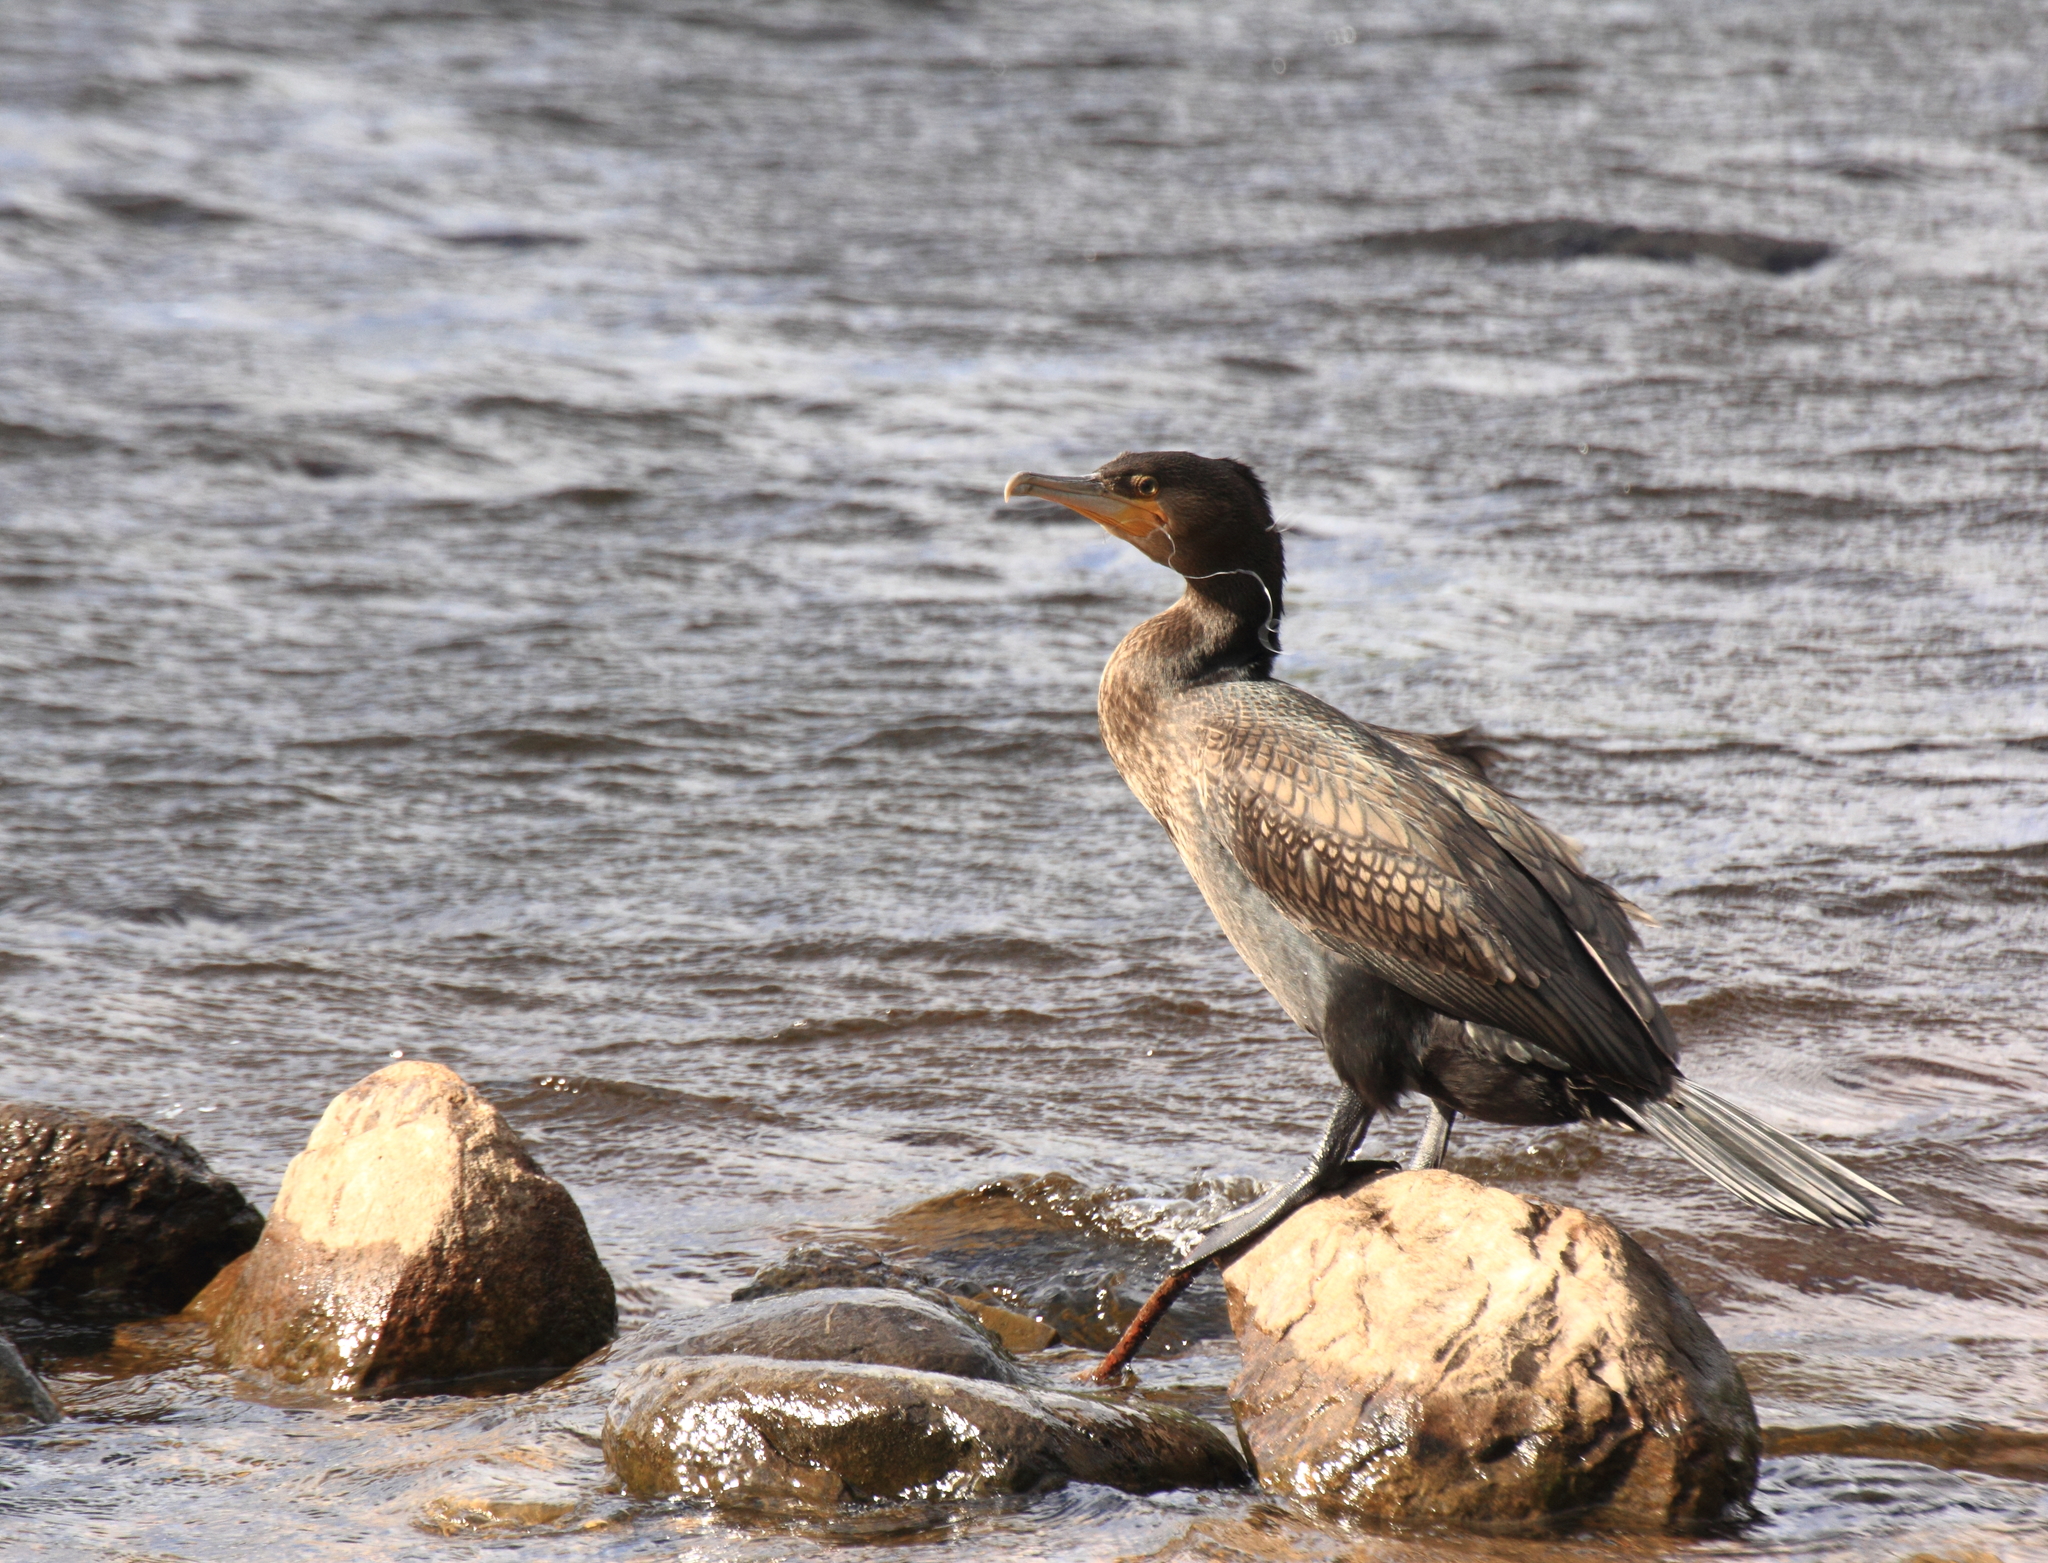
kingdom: Animalia
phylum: Chordata
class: Aves
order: Suliformes
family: Phalacrocoracidae
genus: Phalacrocorax
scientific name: Phalacrocorax carbo
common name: Great cormorant
